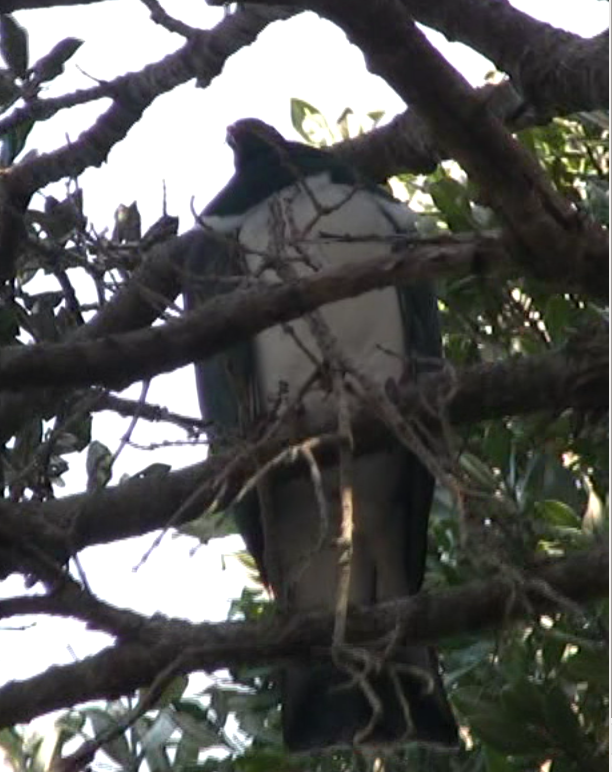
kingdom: Animalia
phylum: Chordata
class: Aves
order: Columbiformes
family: Columbidae
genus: Hemiphaga
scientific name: Hemiphaga novaeseelandiae
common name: New zealand pigeon
